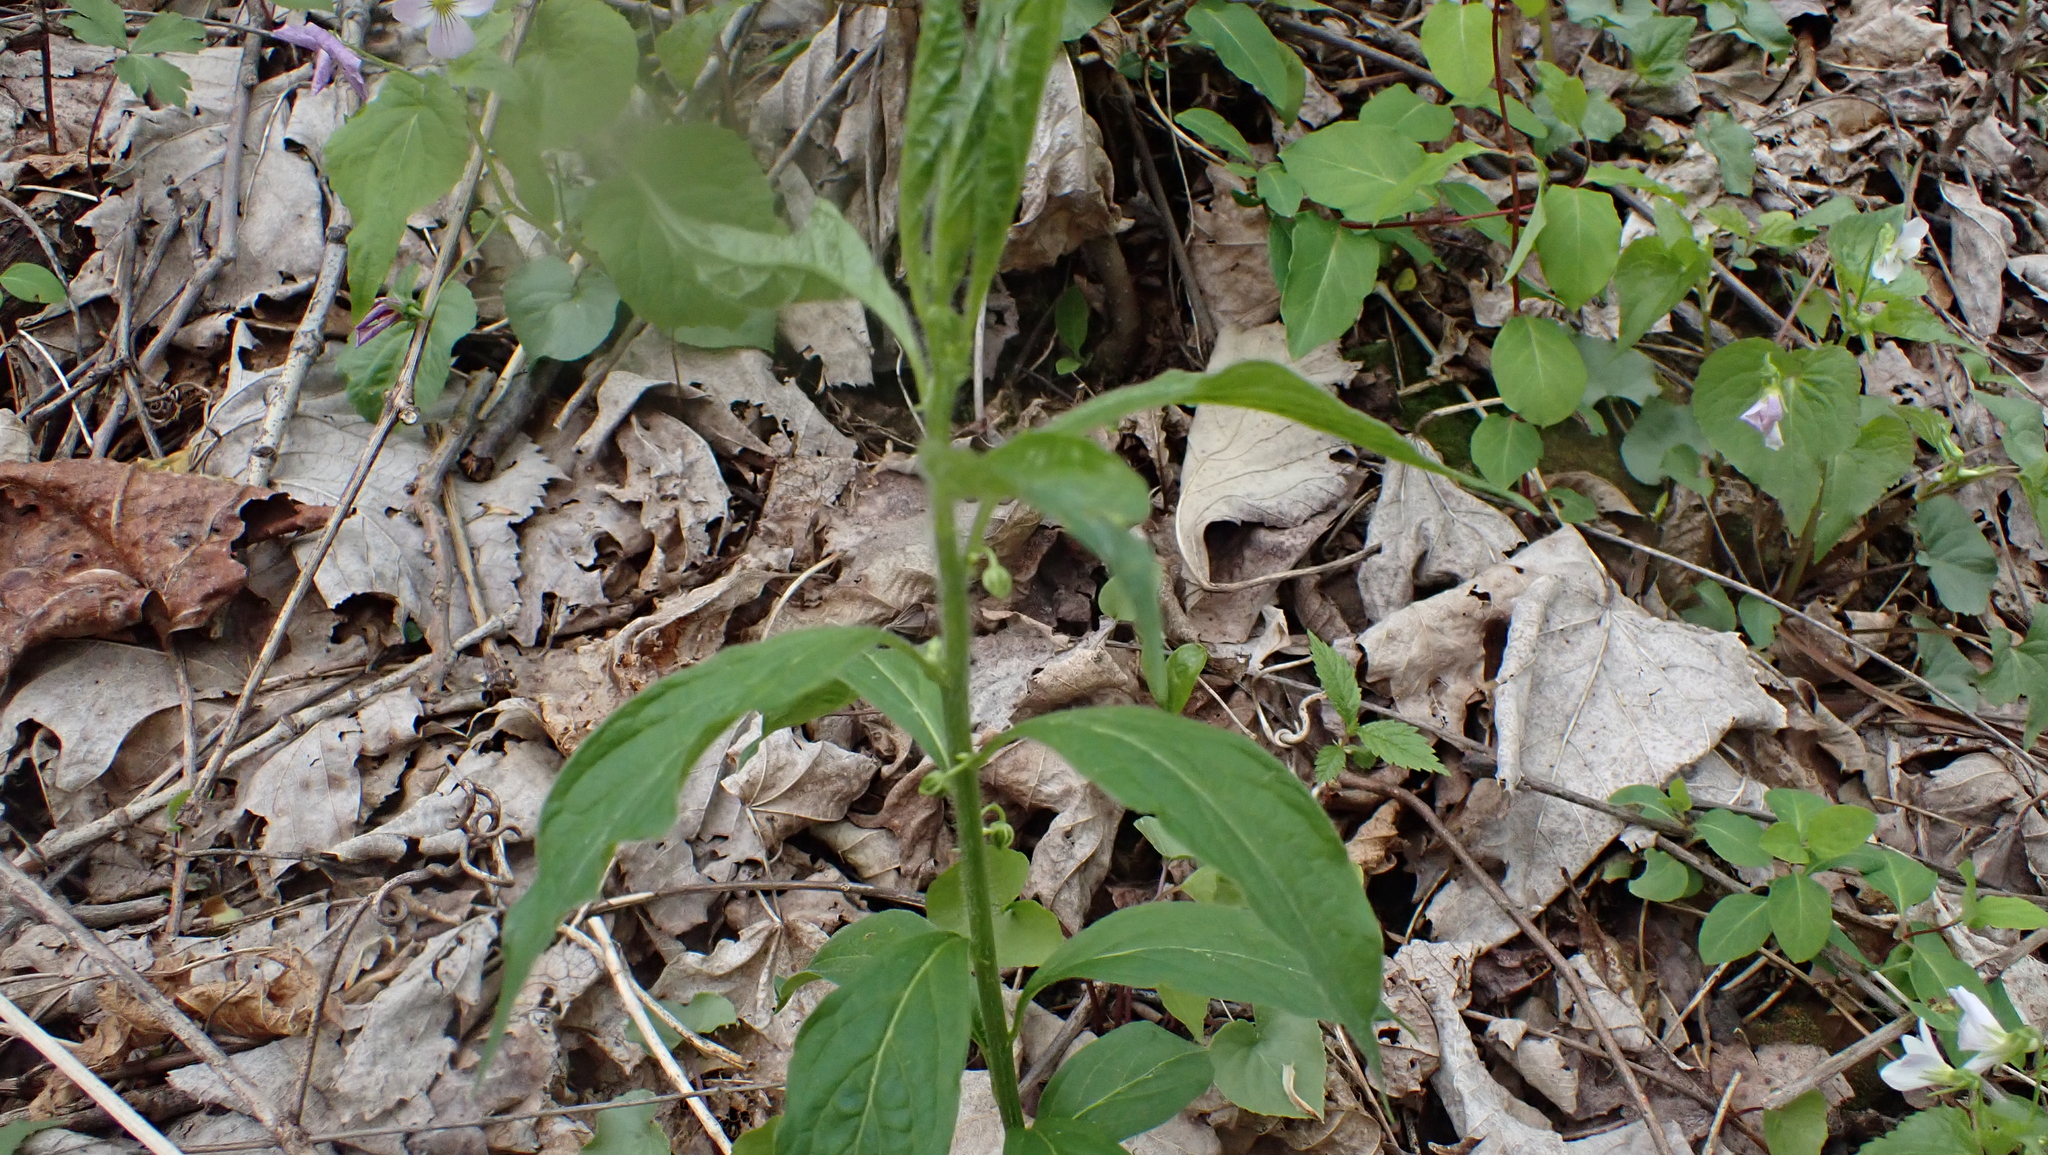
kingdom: Plantae
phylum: Tracheophyta
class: Magnoliopsida
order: Malpighiales
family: Violaceae
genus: Cubelium
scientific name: Cubelium concolor
